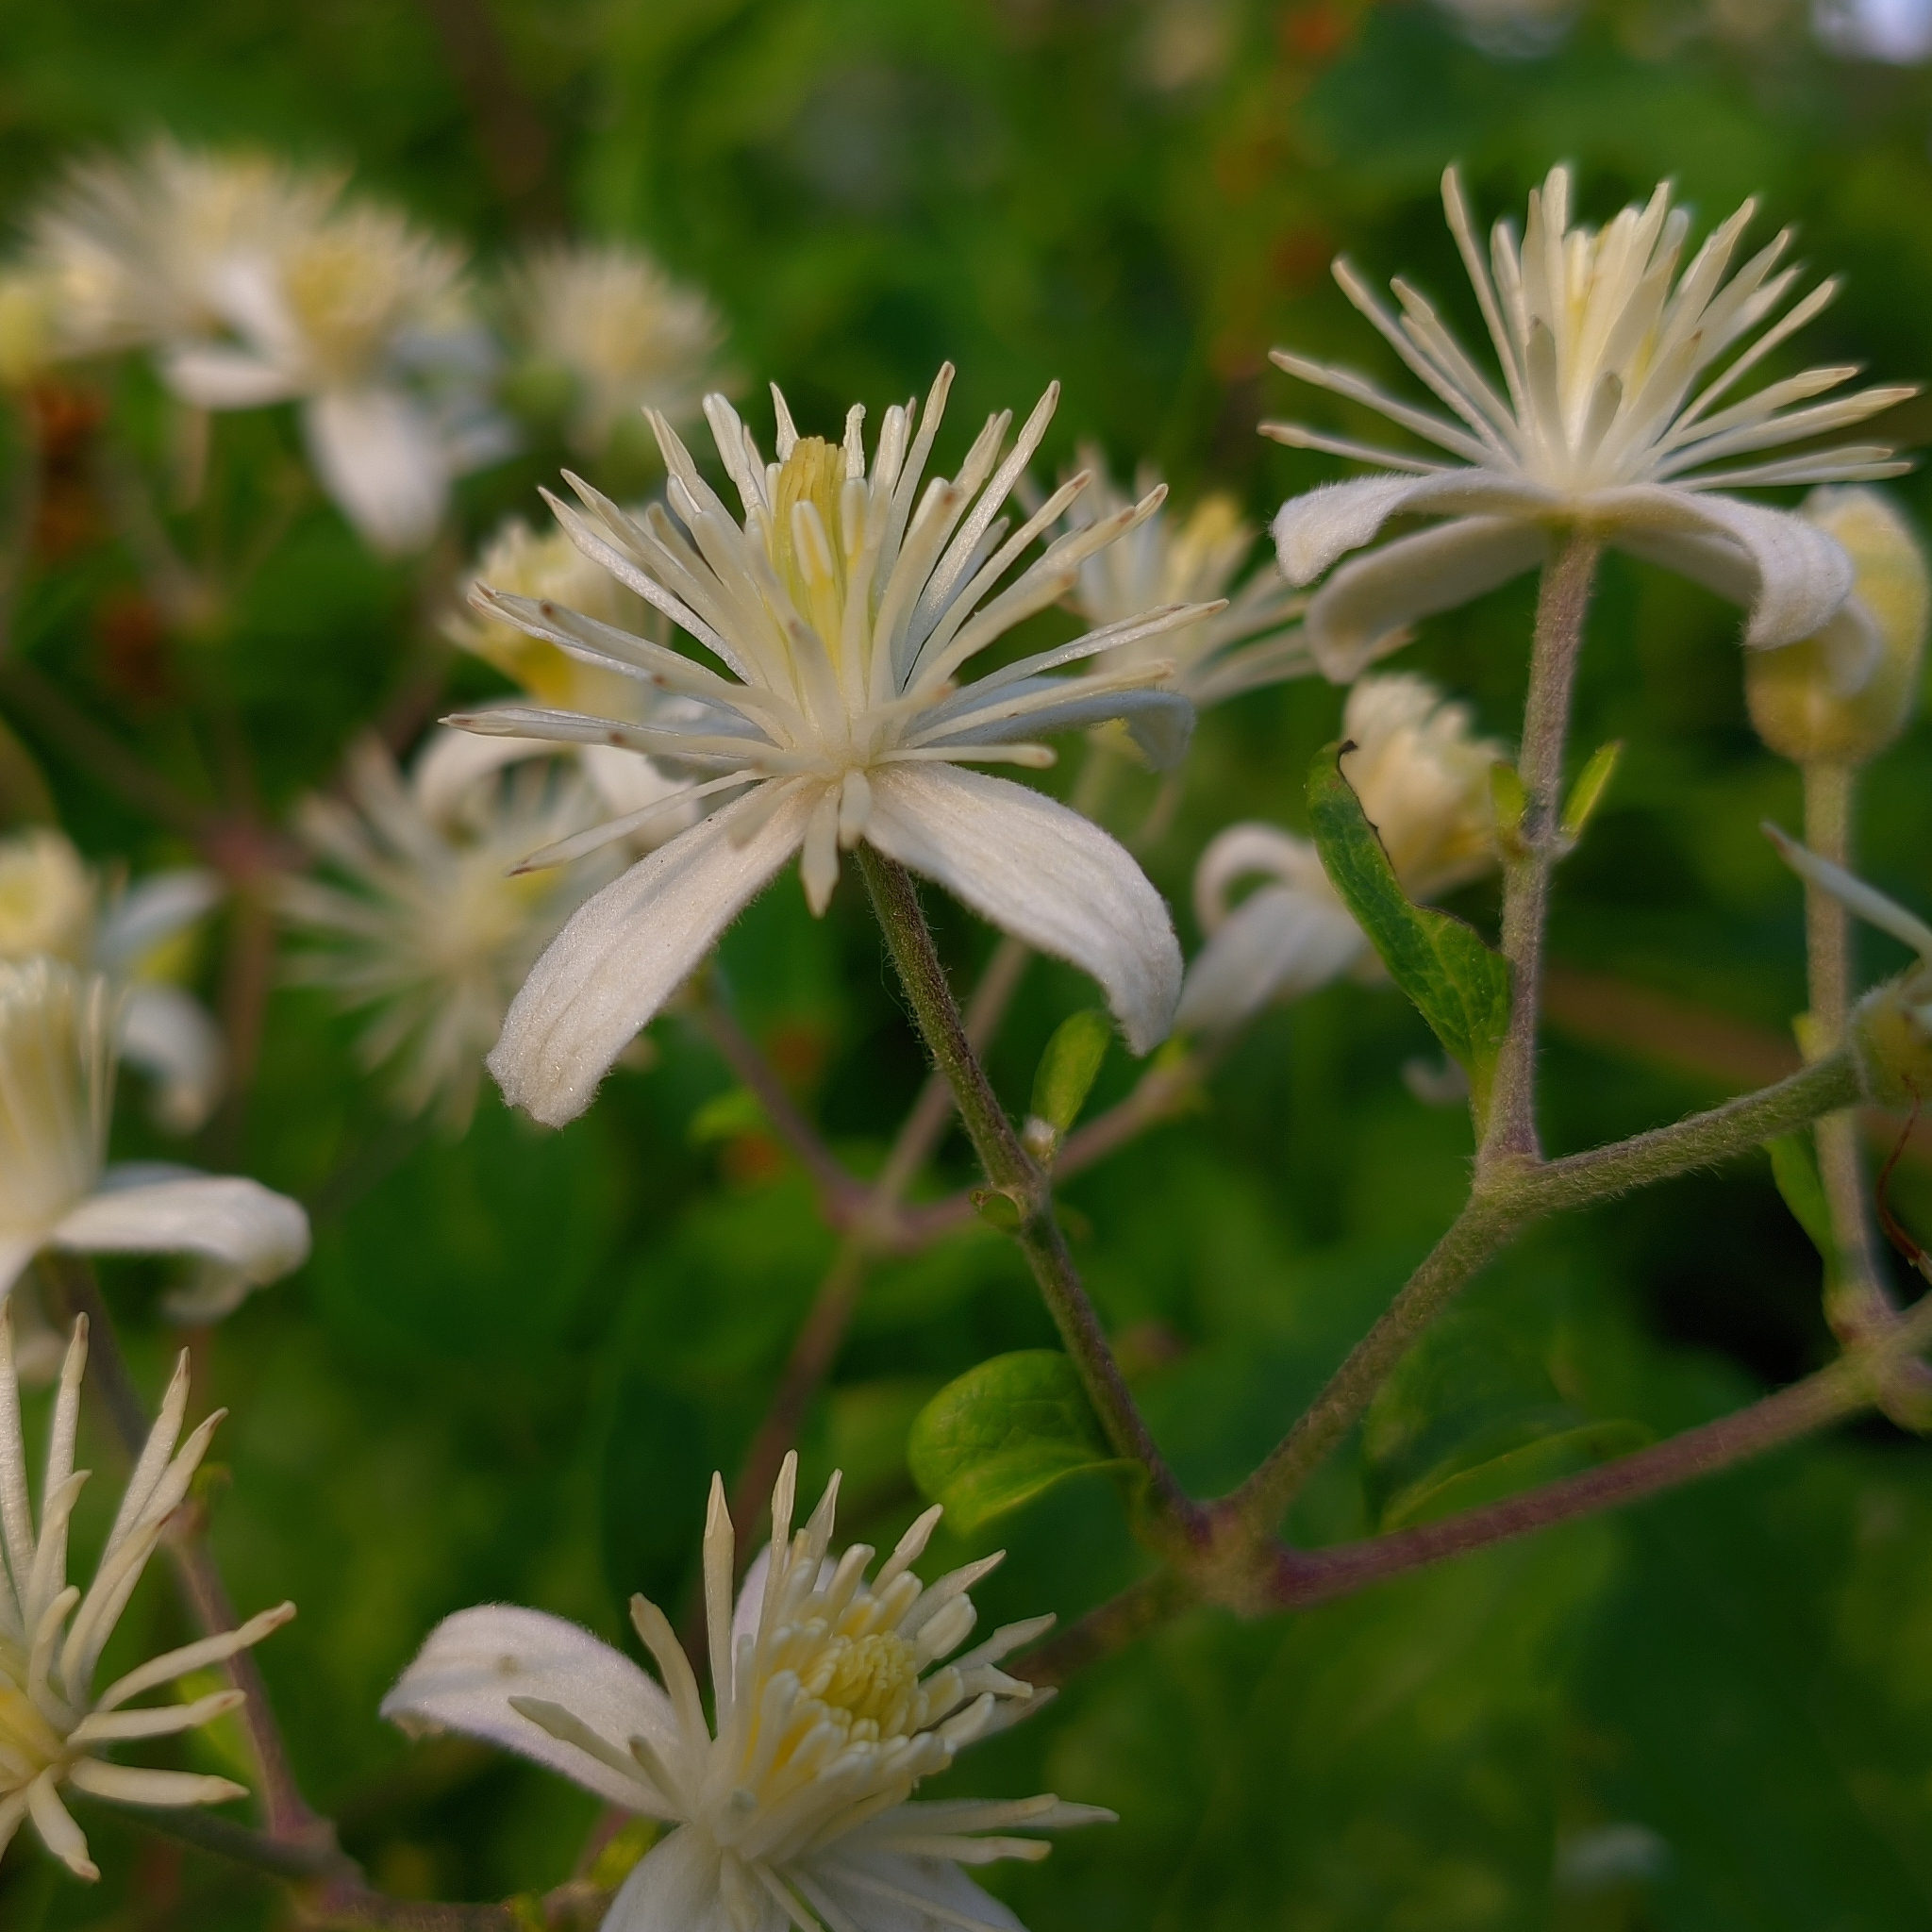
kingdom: Plantae
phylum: Tracheophyta
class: Magnoliopsida
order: Ranunculales
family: Ranunculaceae
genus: Clematis
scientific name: Clematis vitalba
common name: Evergreen clematis
